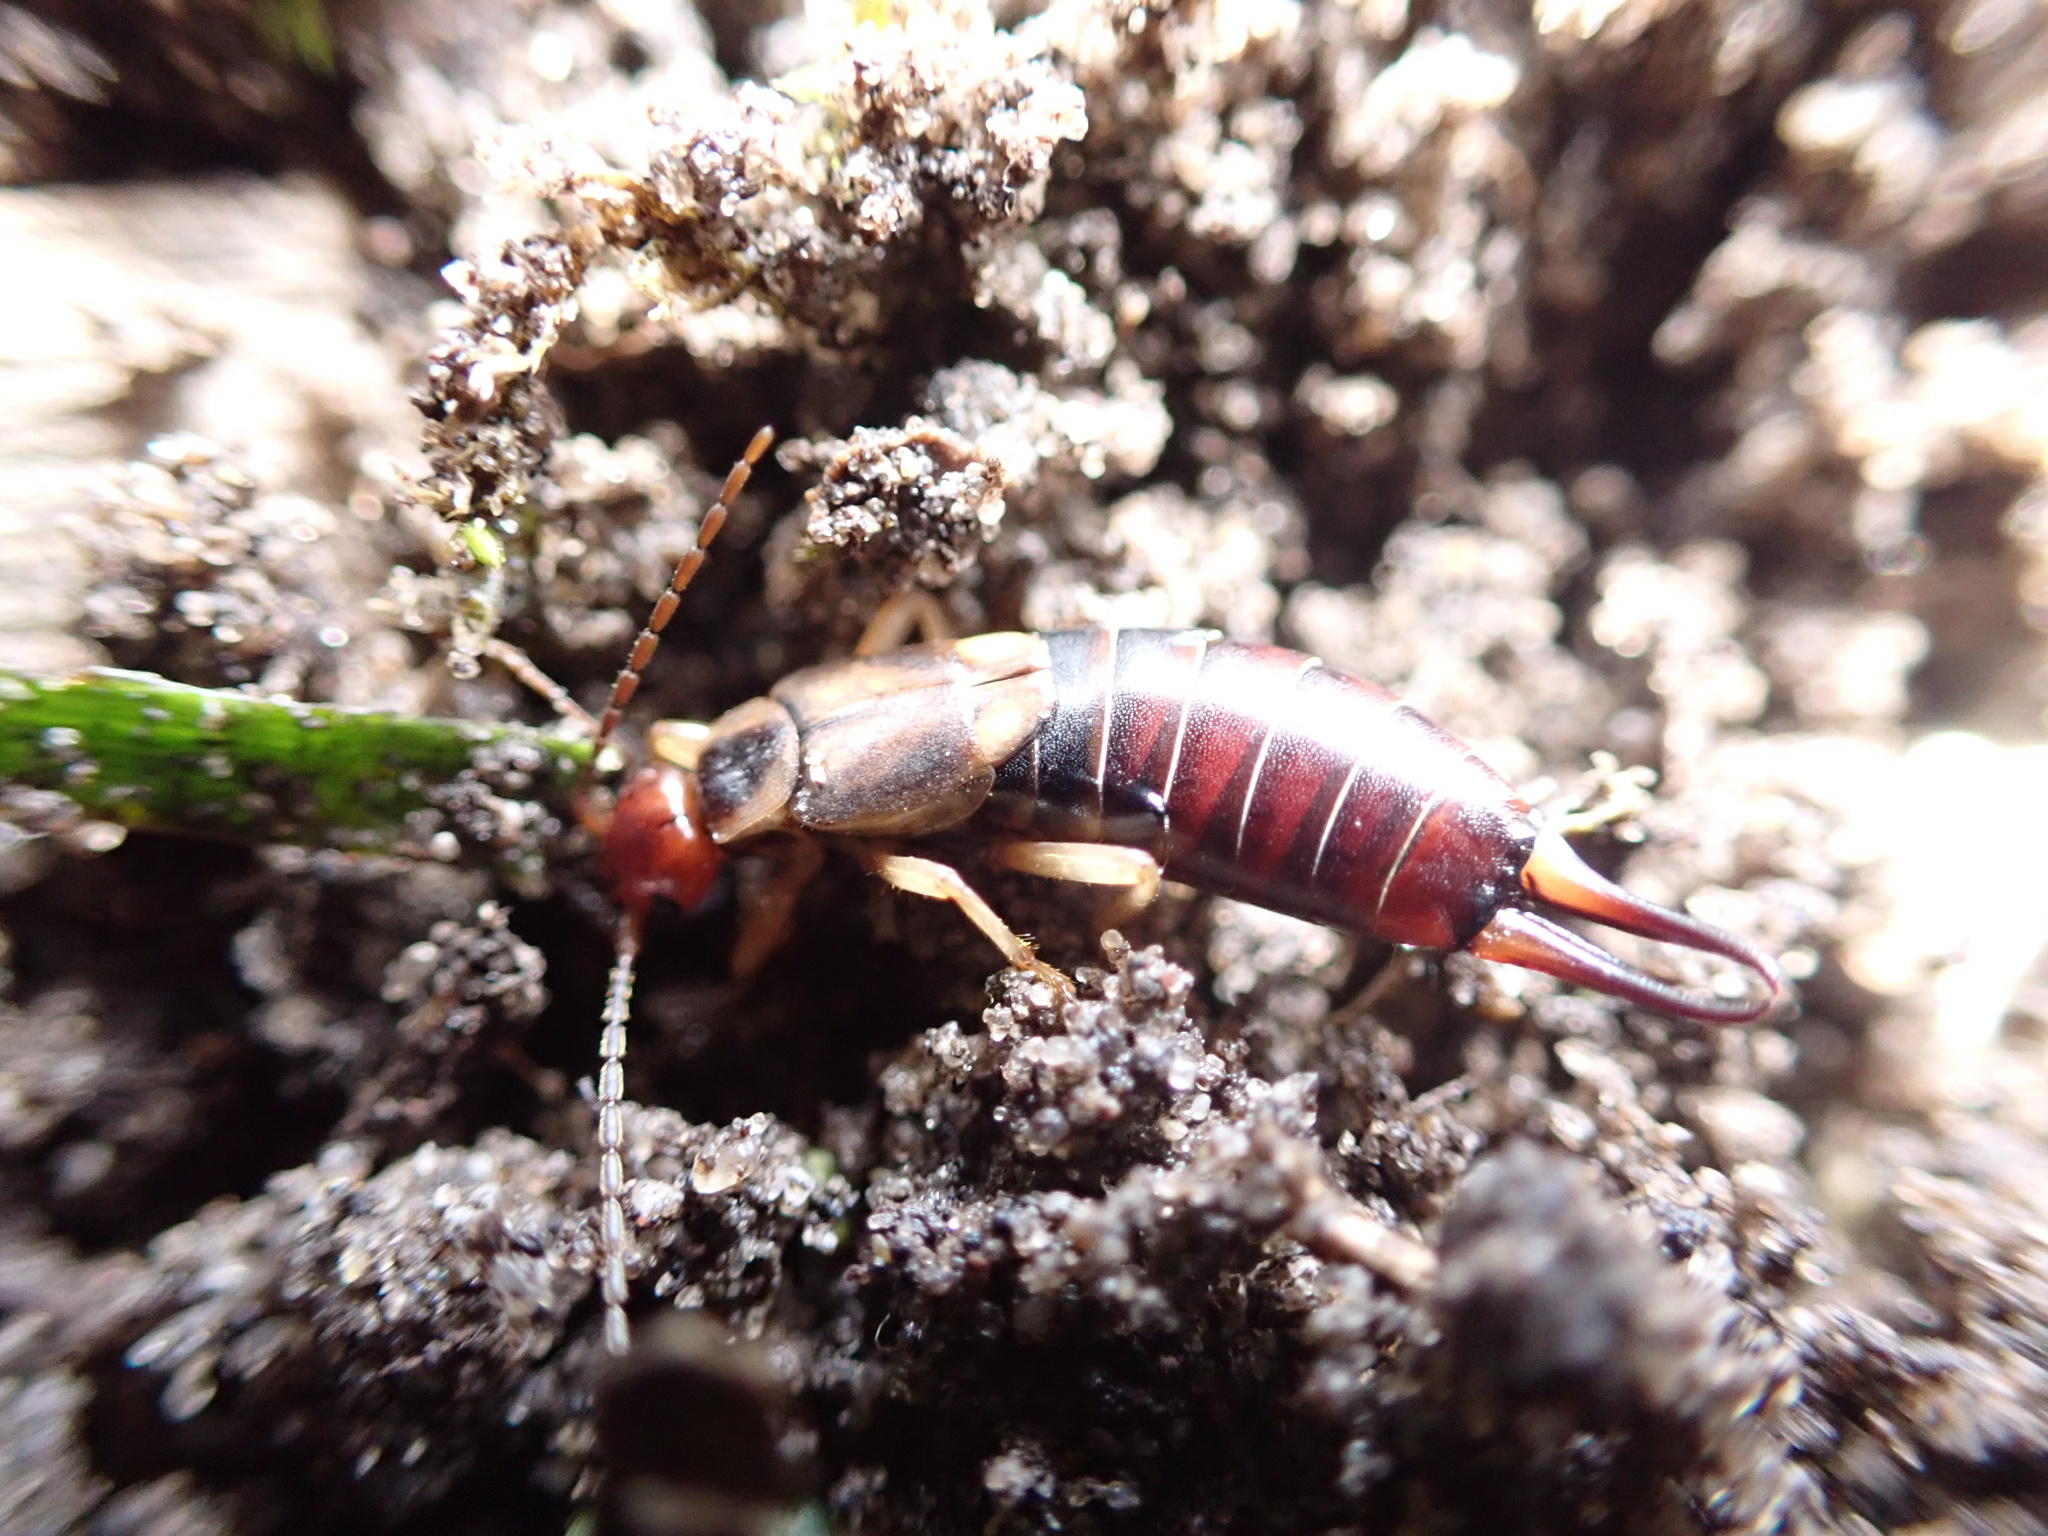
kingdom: Animalia
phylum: Arthropoda
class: Insecta
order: Dermaptera
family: Forficulidae
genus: Forficula
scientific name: Forficula
